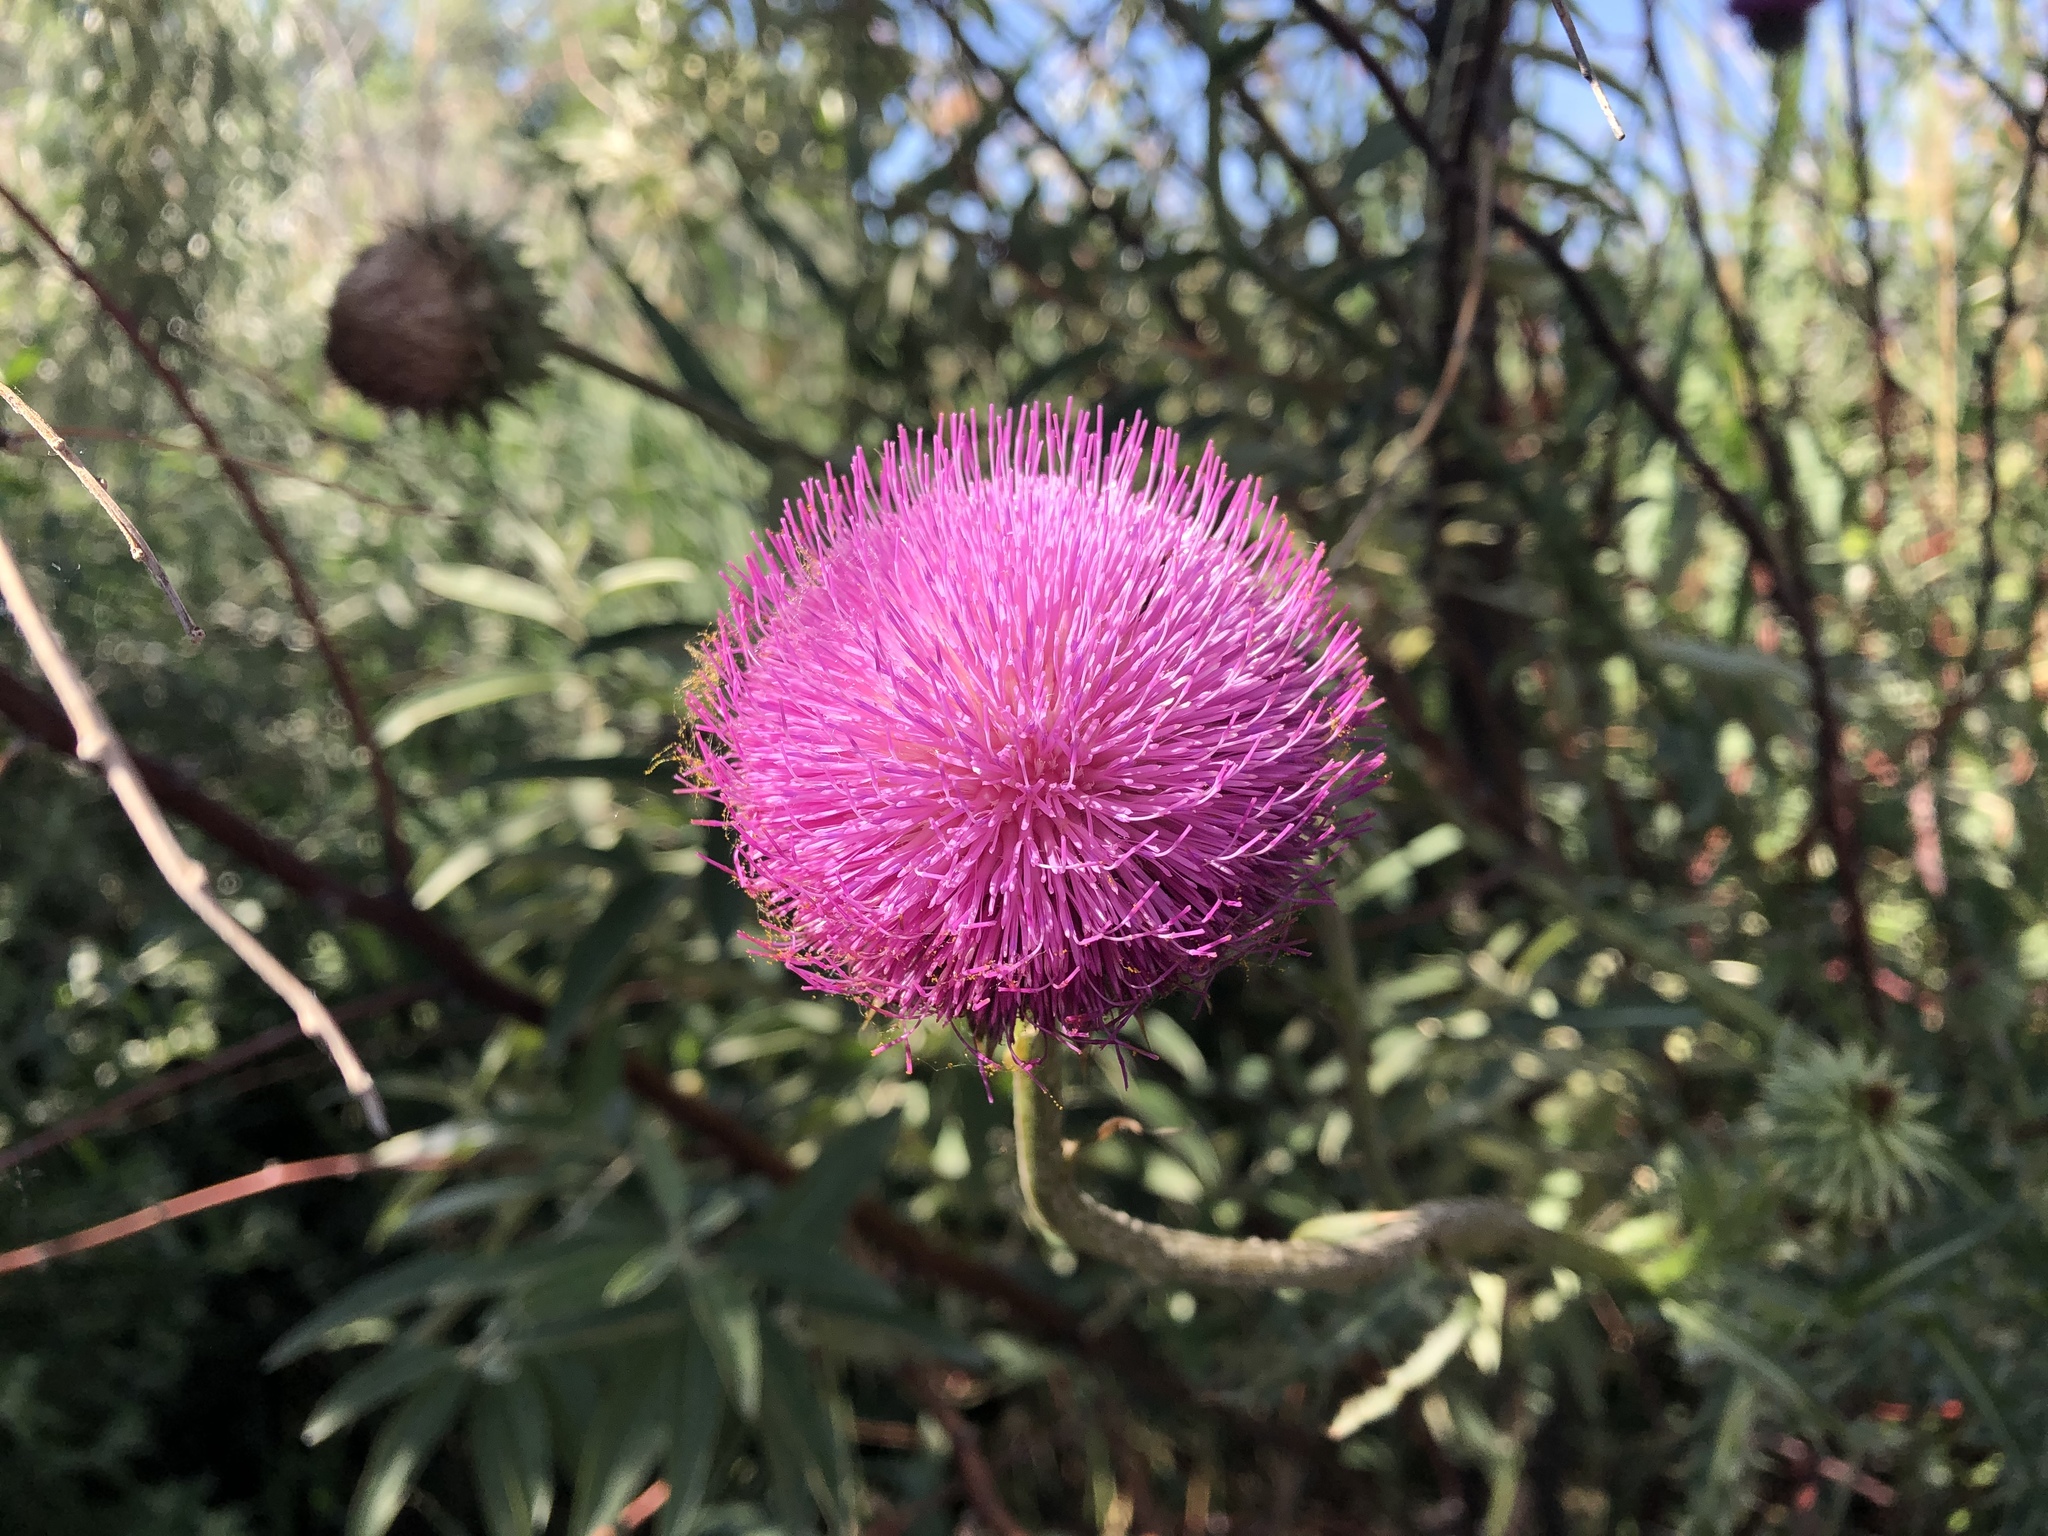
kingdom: Plantae
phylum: Tracheophyta
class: Magnoliopsida
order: Asterales
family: Asteraceae
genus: Carduus
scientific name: Carduus nutans
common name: Musk thistle
